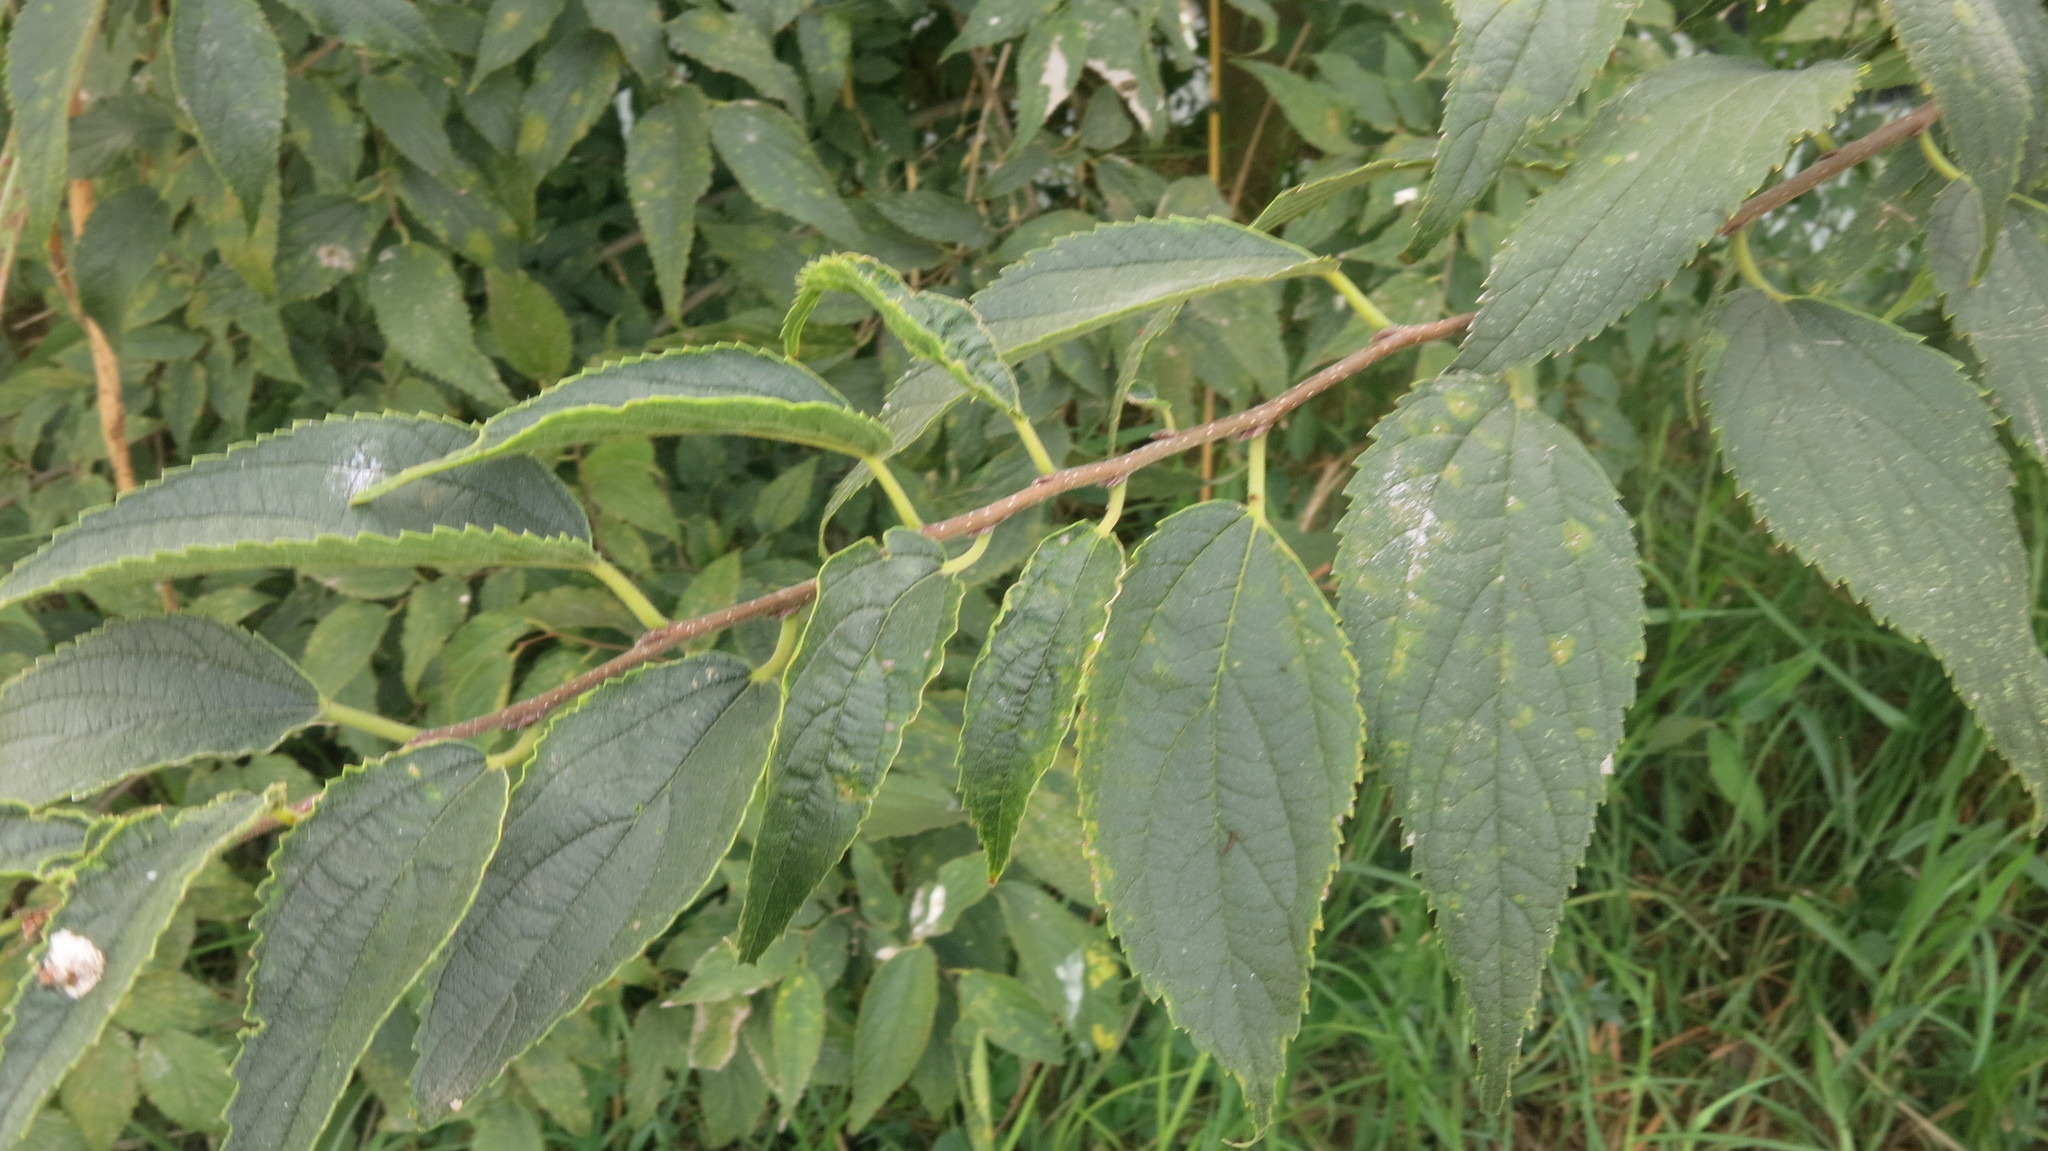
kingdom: Plantae
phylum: Tracheophyta
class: Magnoliopsida
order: Rosales
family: Cannabaceae
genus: Celtis
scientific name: Celtis australis
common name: European hackberry
